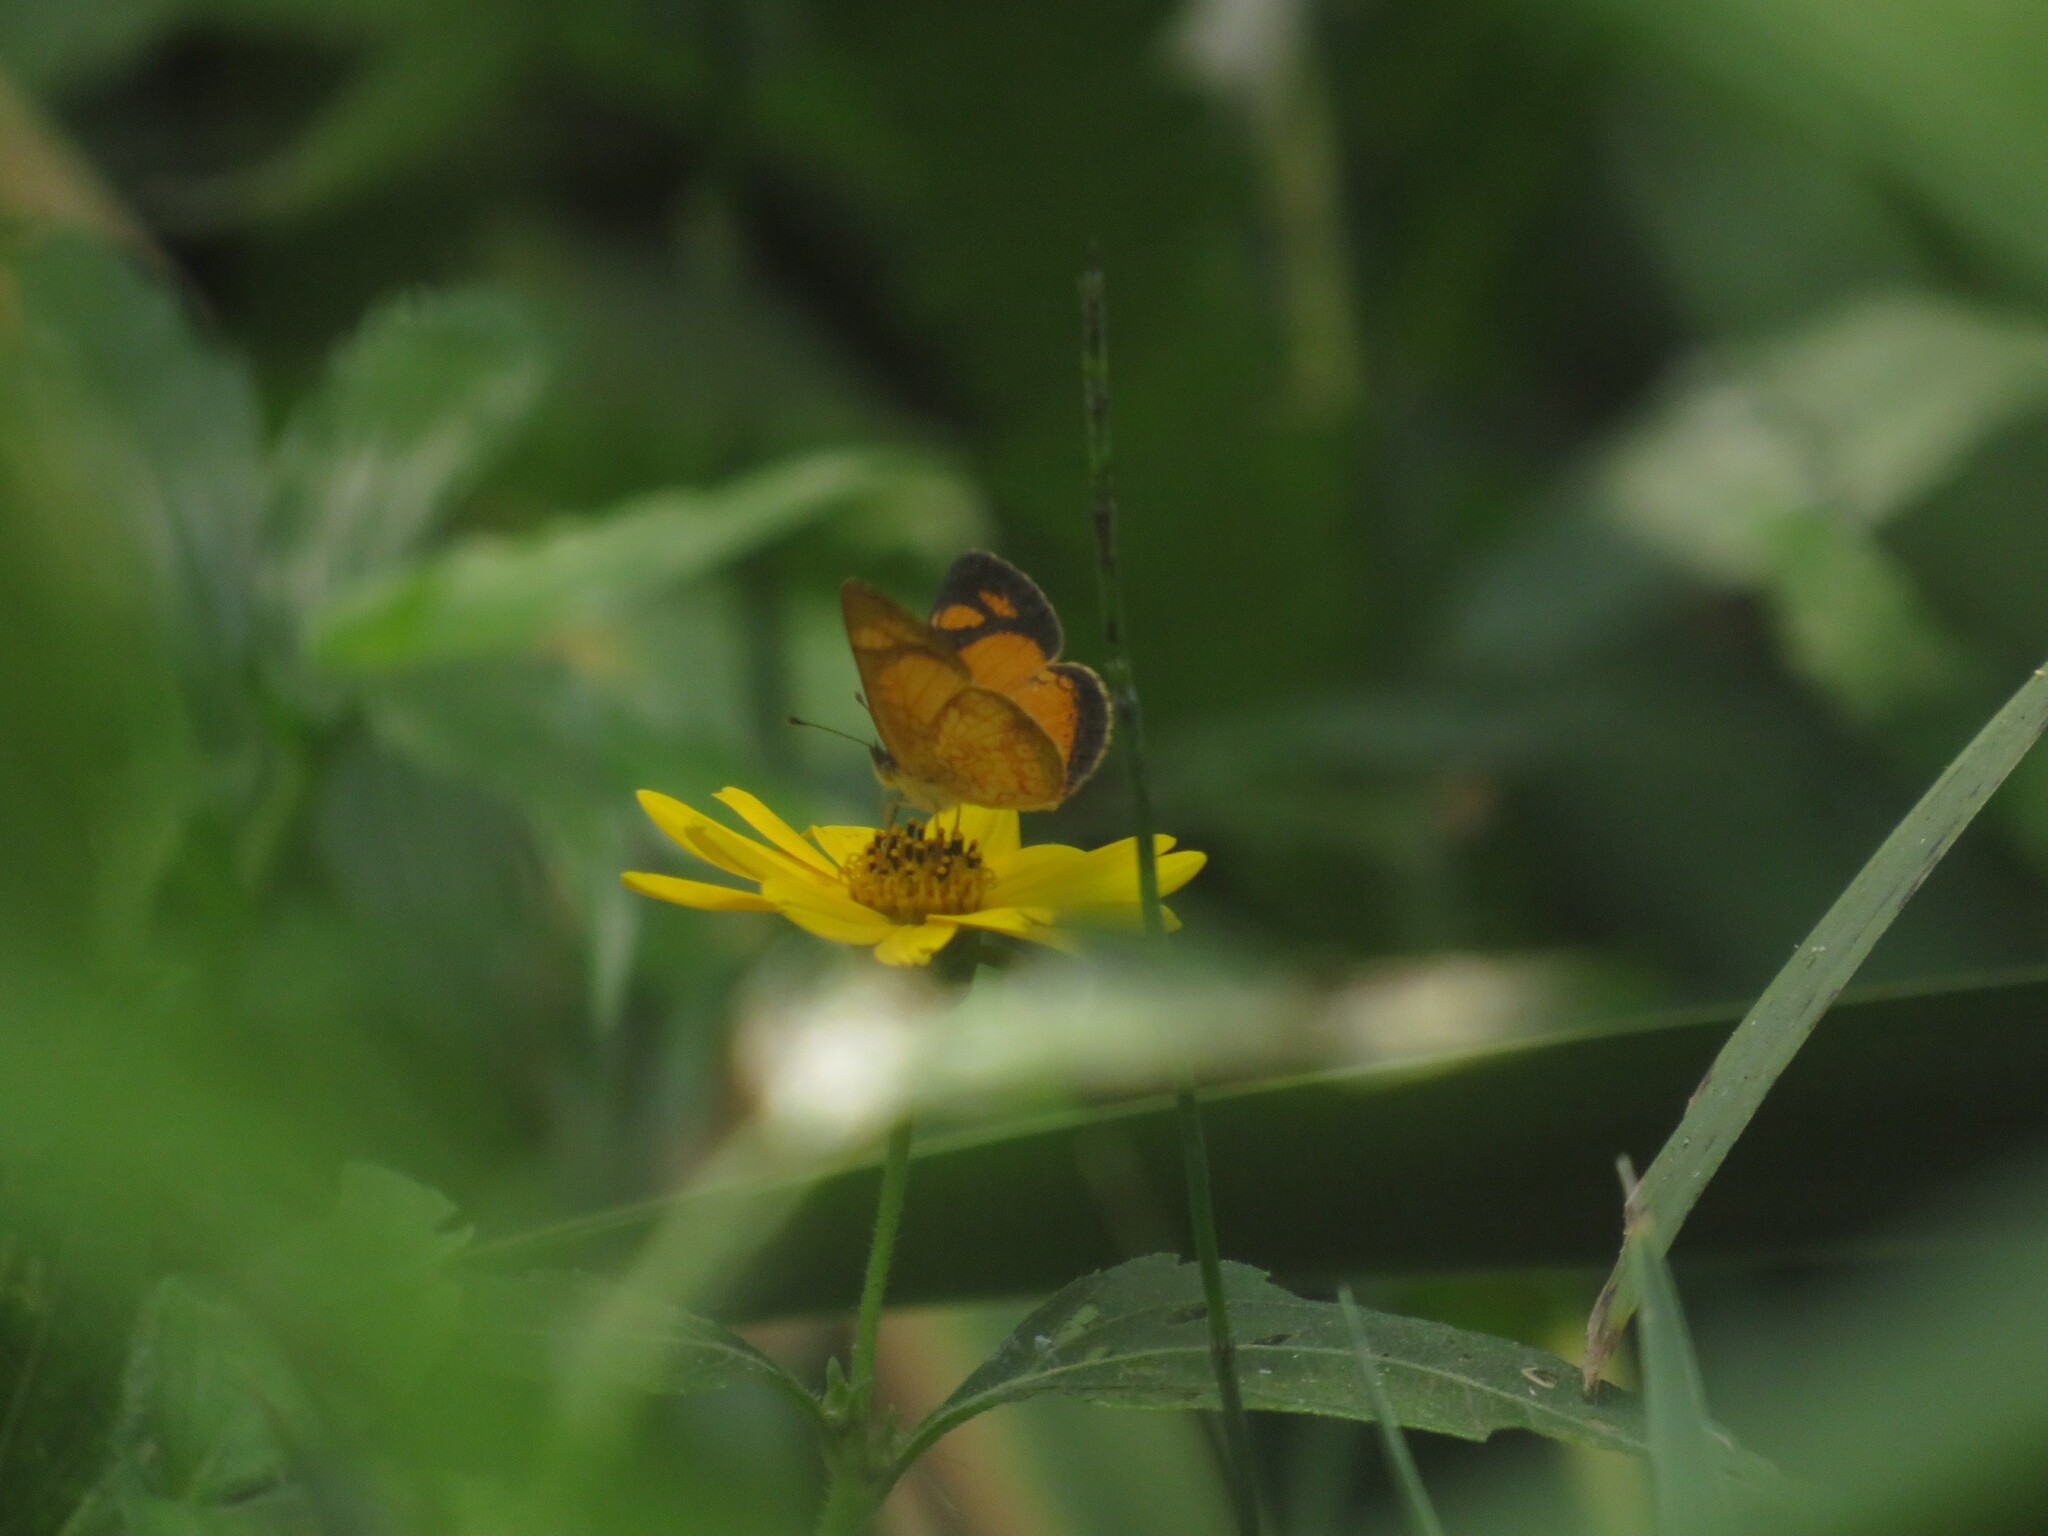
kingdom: Animalia
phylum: Arthropoda
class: Insecta
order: Lepidoptera
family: Nymphalidae
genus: Tegosa
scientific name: Tegosa claudina
